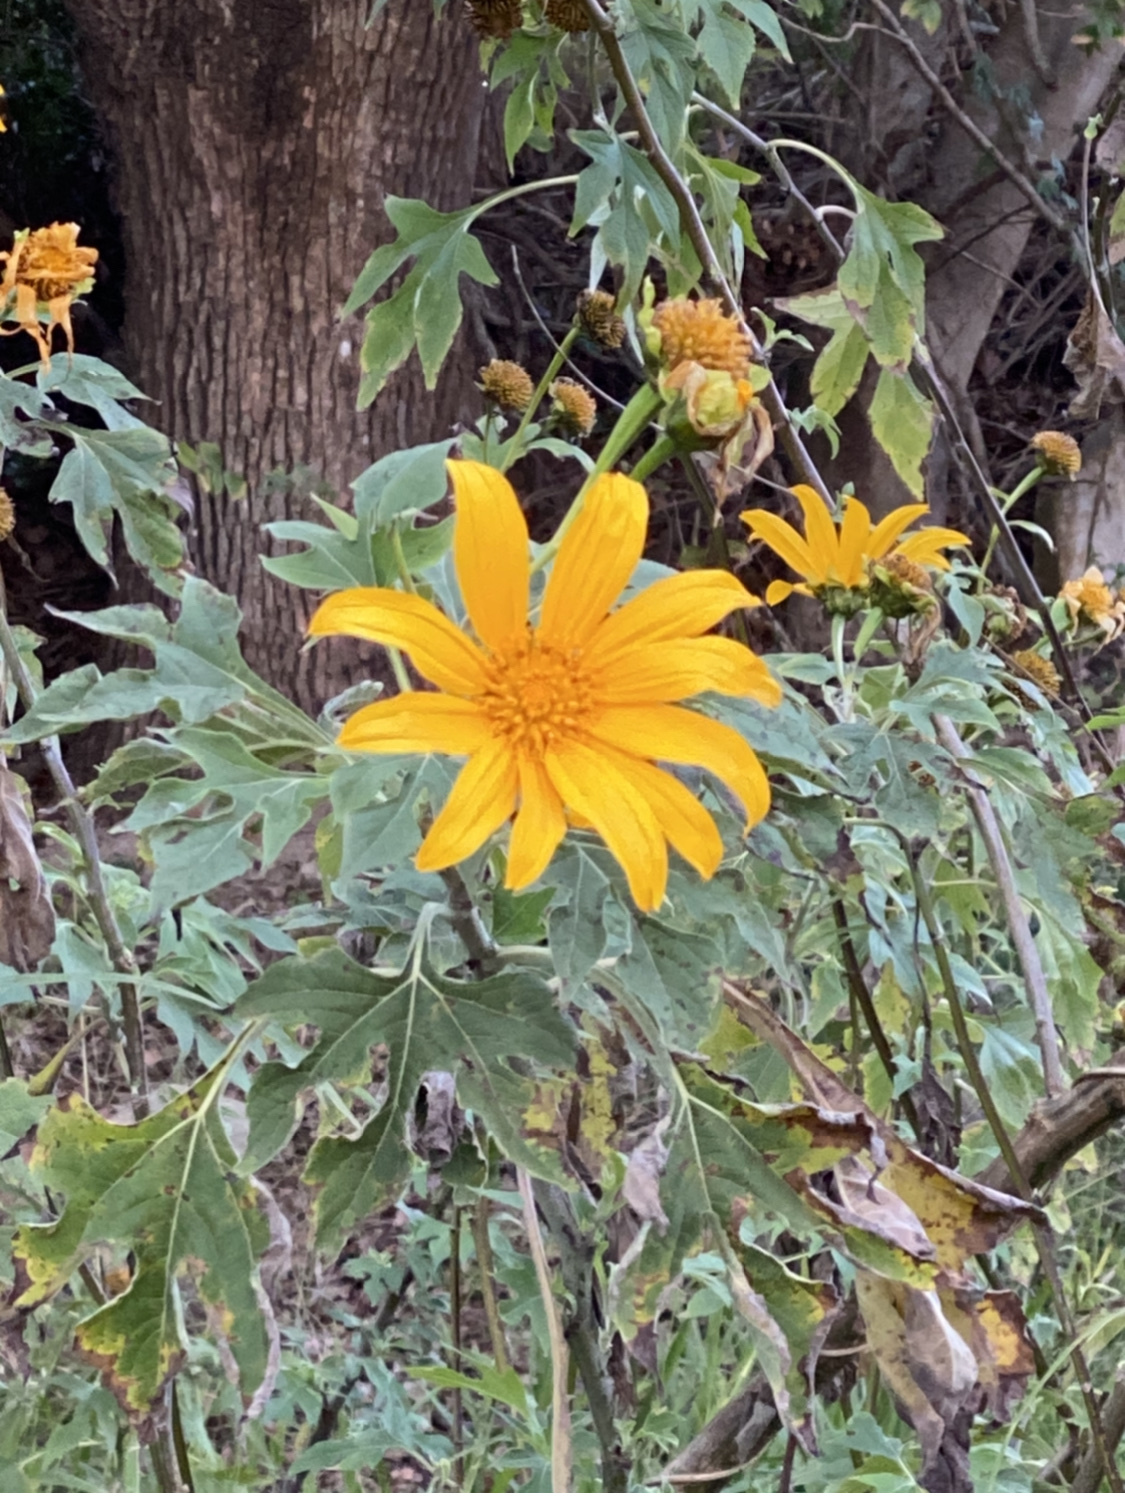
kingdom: Plantae
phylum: Tracheophyta
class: Magnoliopsida
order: Asterales
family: Asteraceae
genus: Tithonia
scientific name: Tithonia diversifolia
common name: Tree marigold
